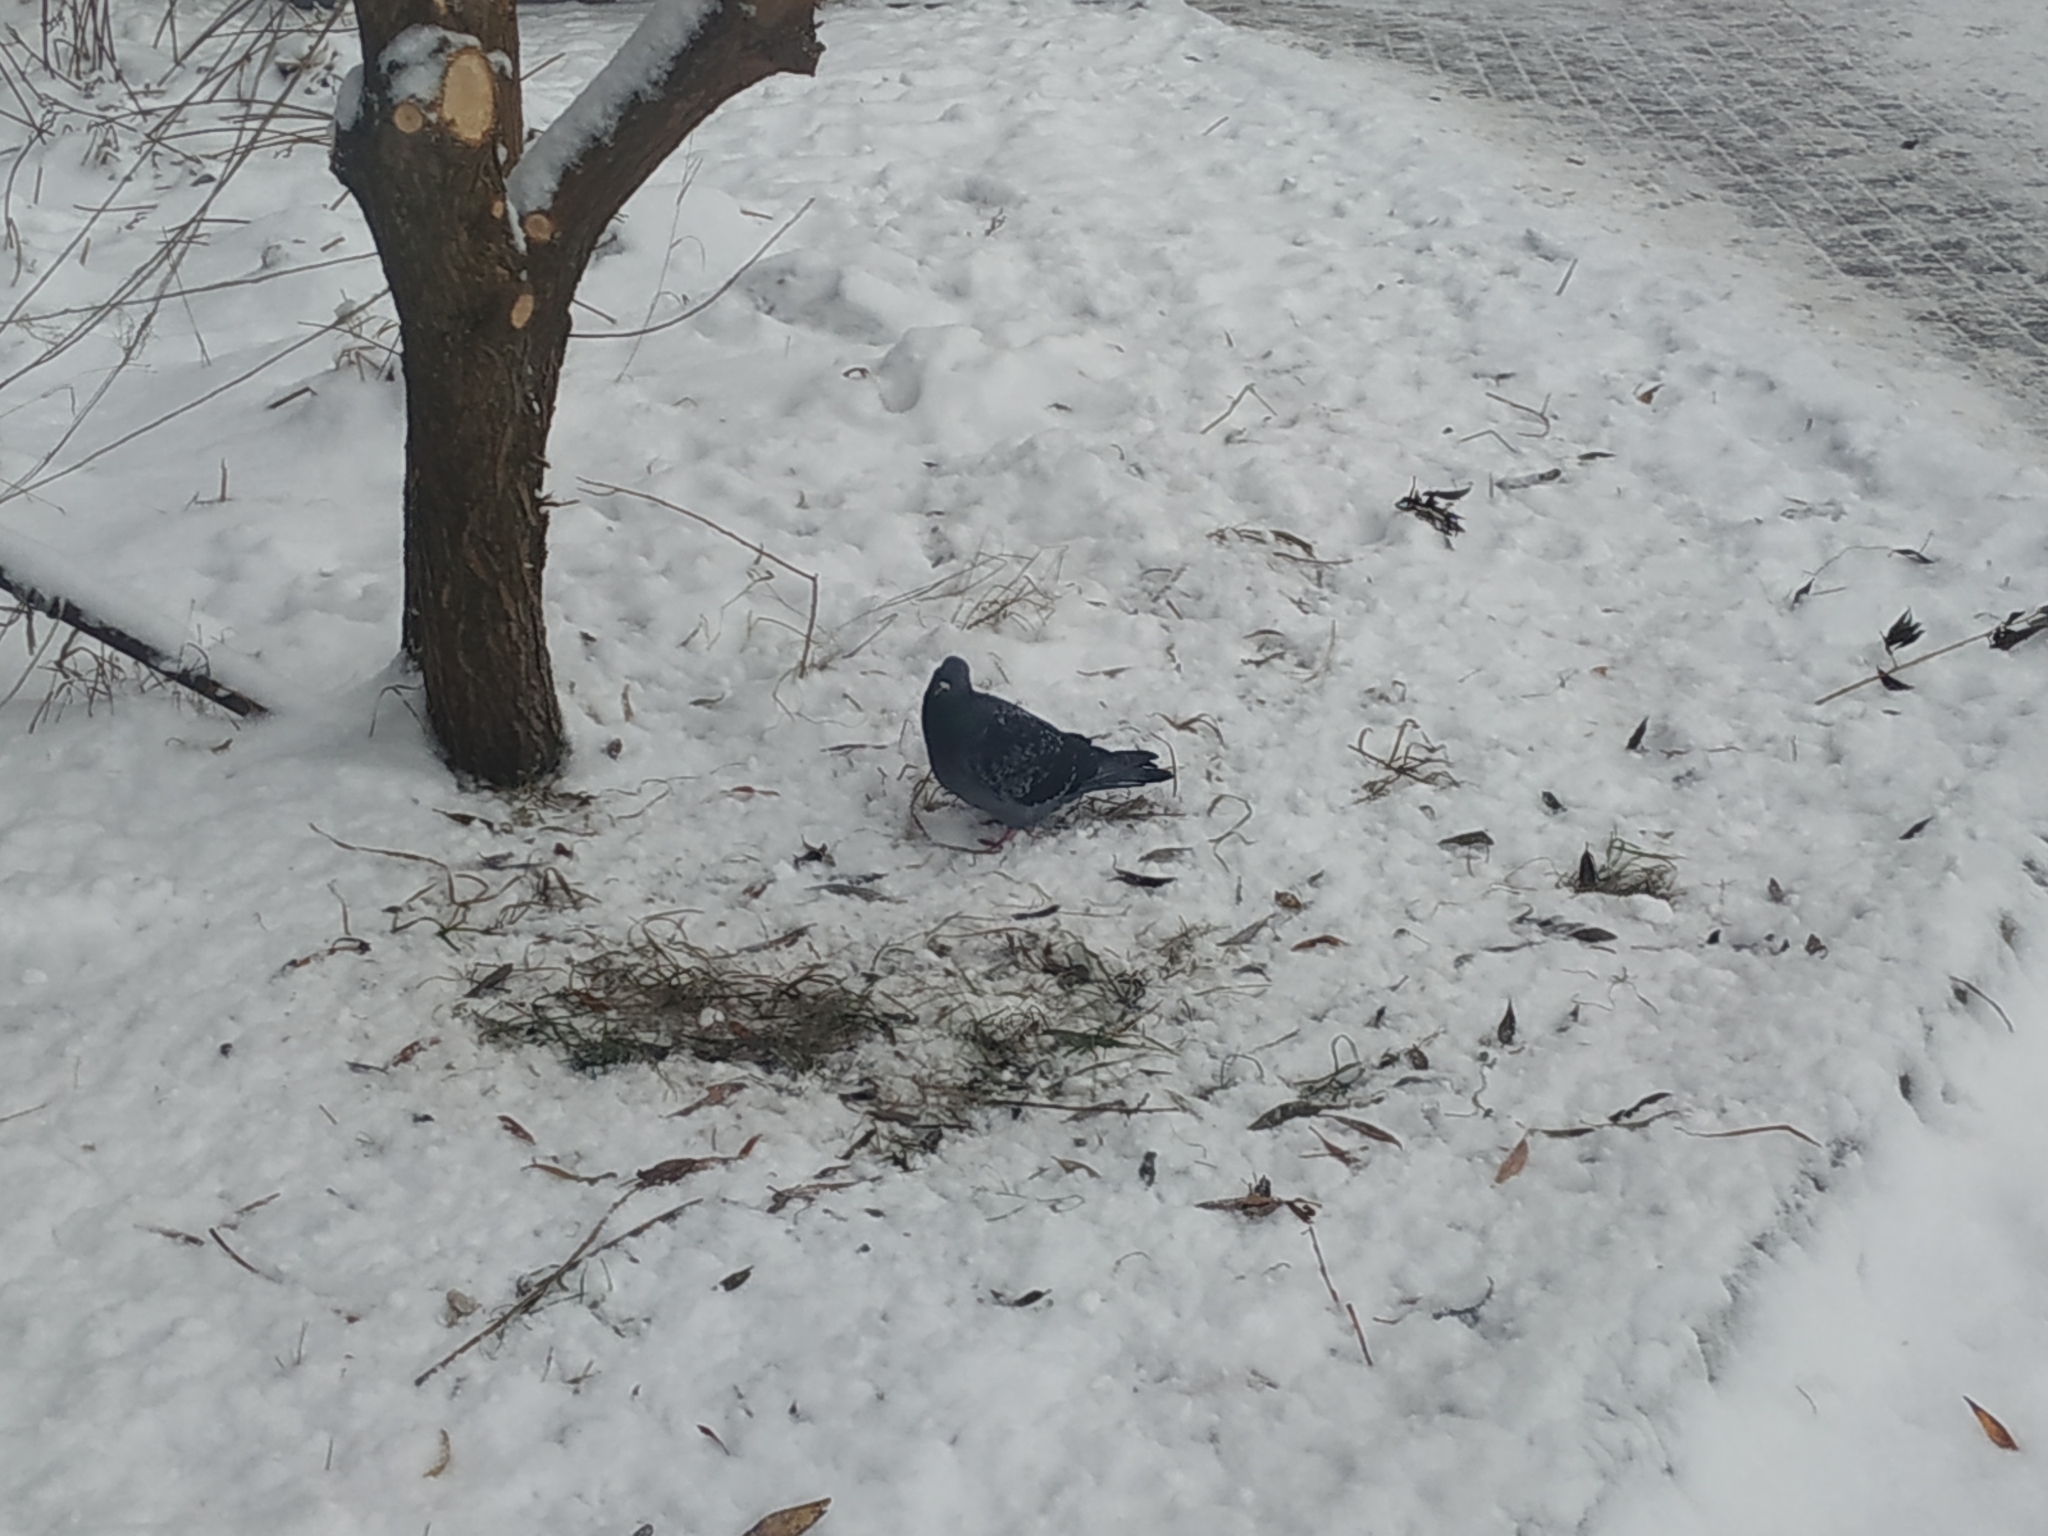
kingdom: Animalia
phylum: Chordata
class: Aves
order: Columbiformes
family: Columbidae
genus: Columba
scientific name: Columba livia
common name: Rock pigeon
